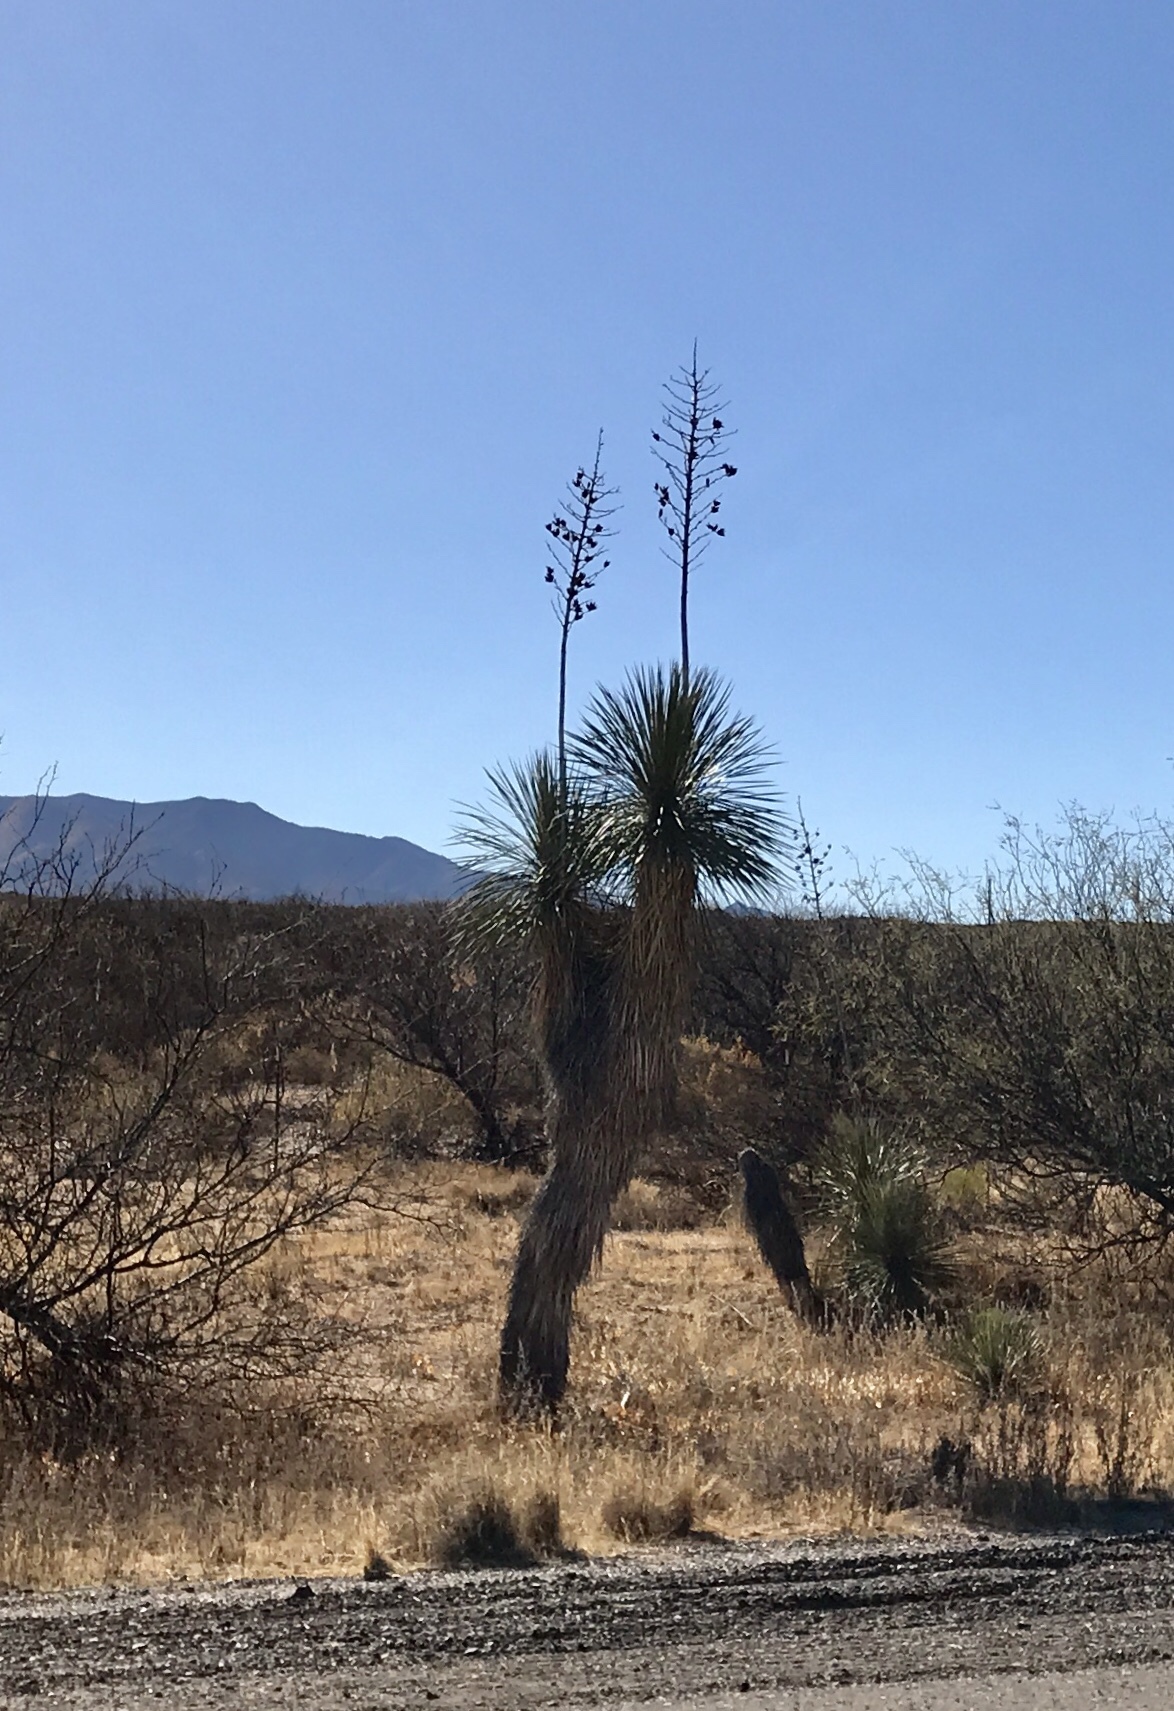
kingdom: Plantae
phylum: Tracheophyta
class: Liliopsida
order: Asparagales
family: Asparagaceae
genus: Yucca
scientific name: Yucca elata
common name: Palmella
